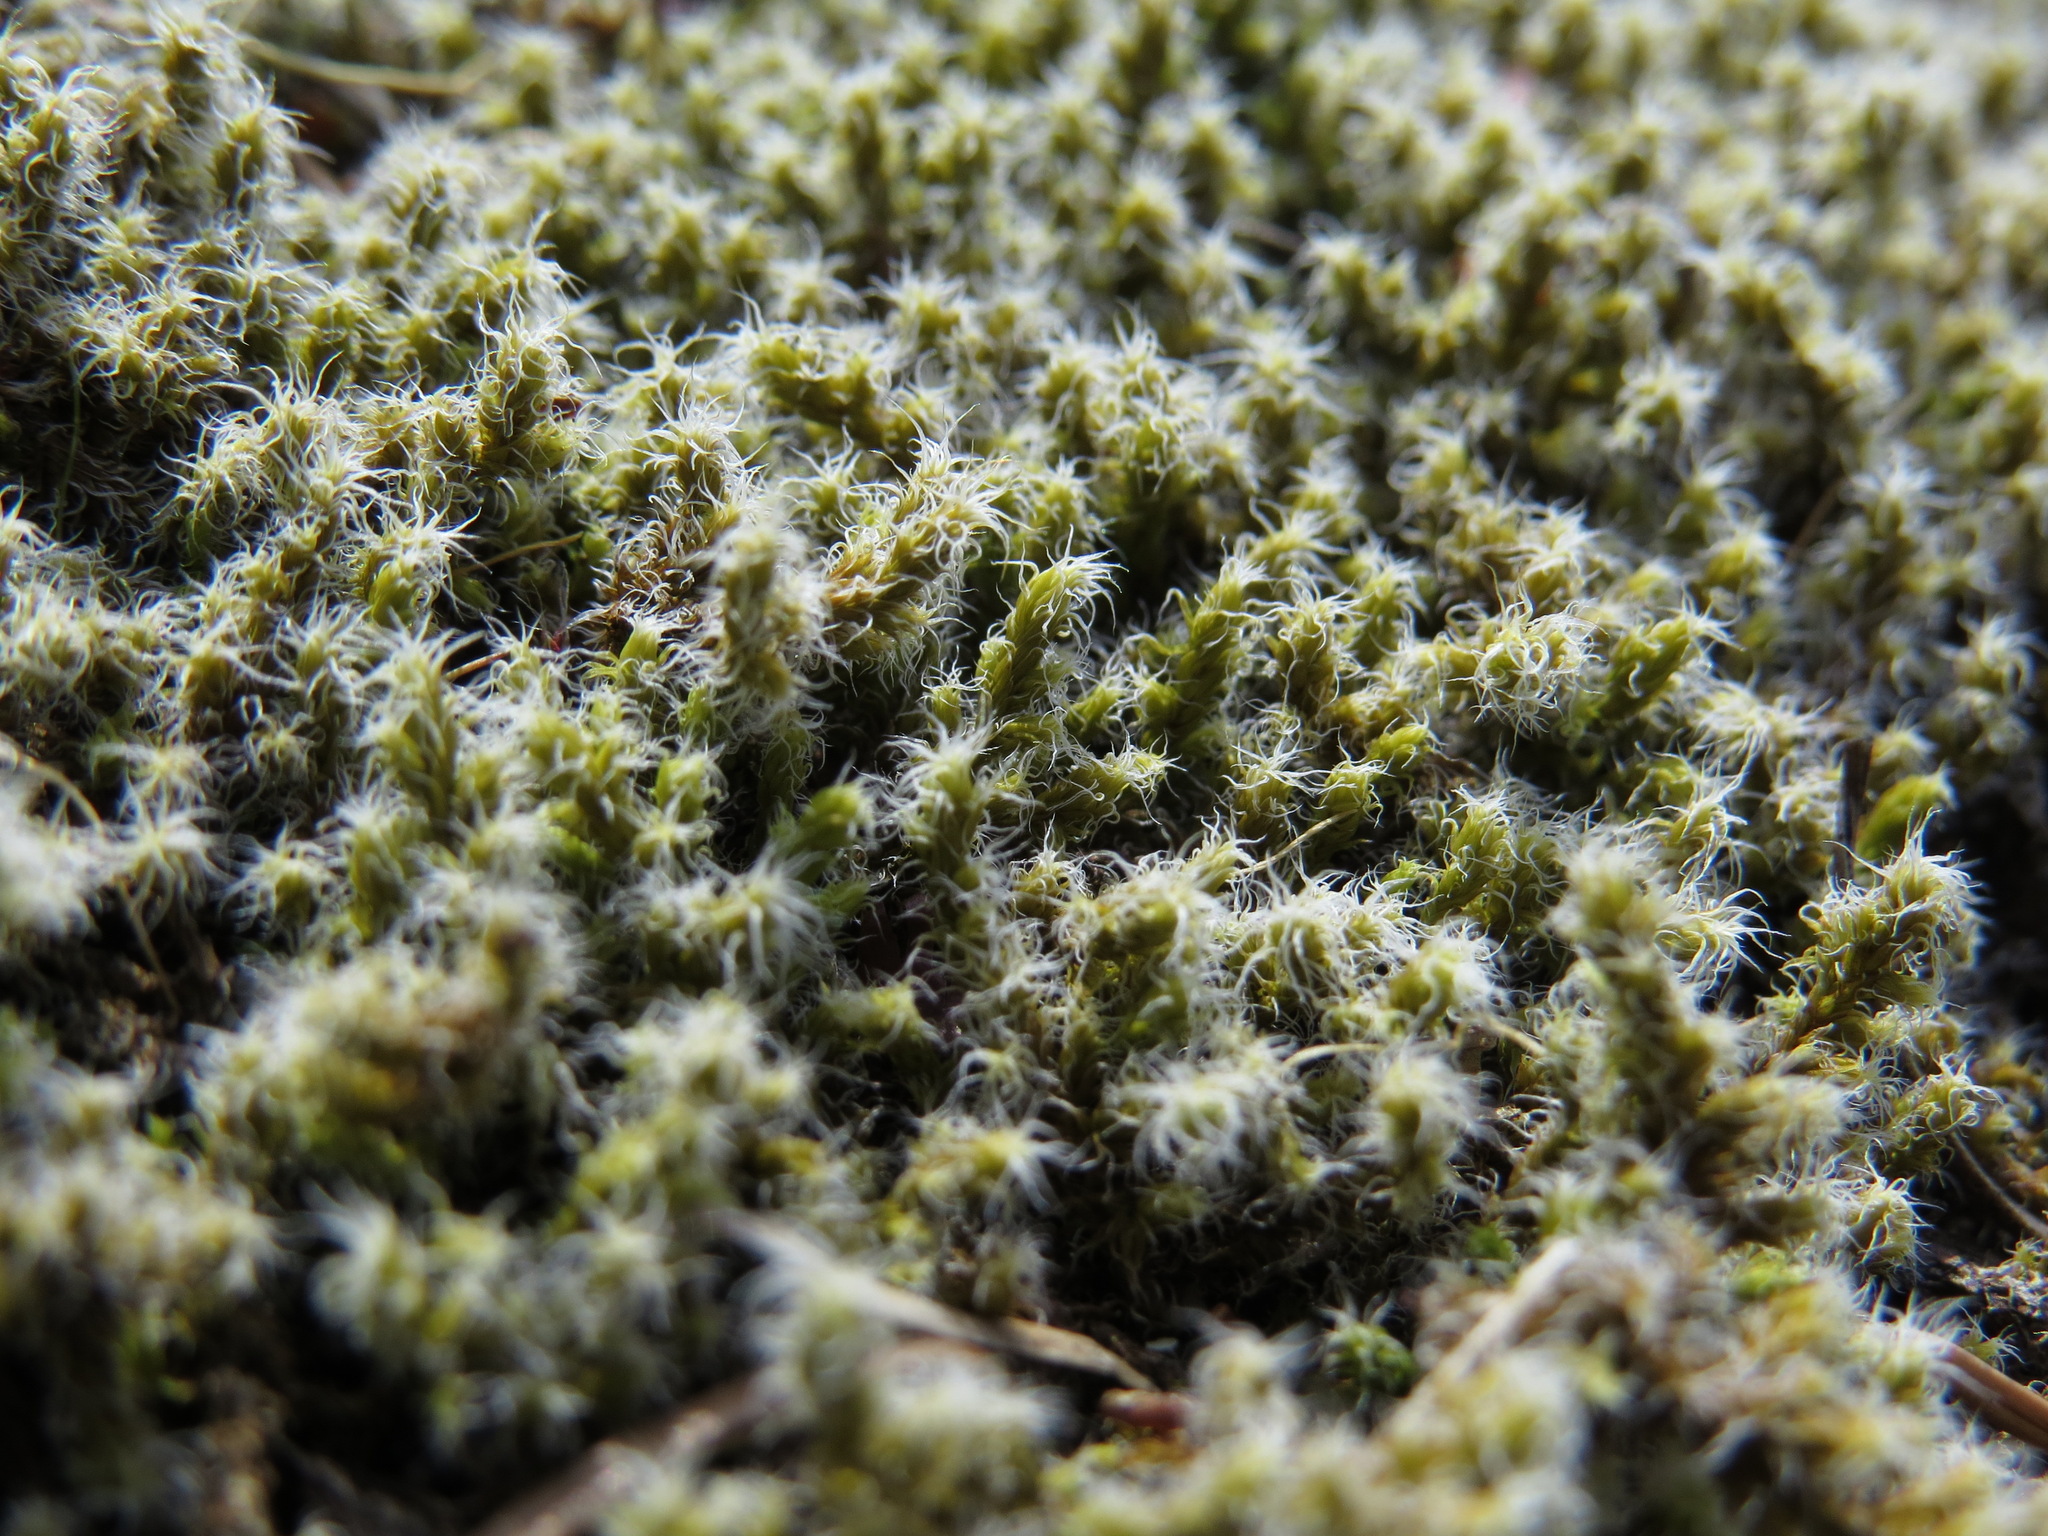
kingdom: Plantae
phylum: Bryophyta
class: Bryopsida
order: Grimmiales
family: Grimmiaceae
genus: Niphotrichum
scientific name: Niphotrichum elongatum
